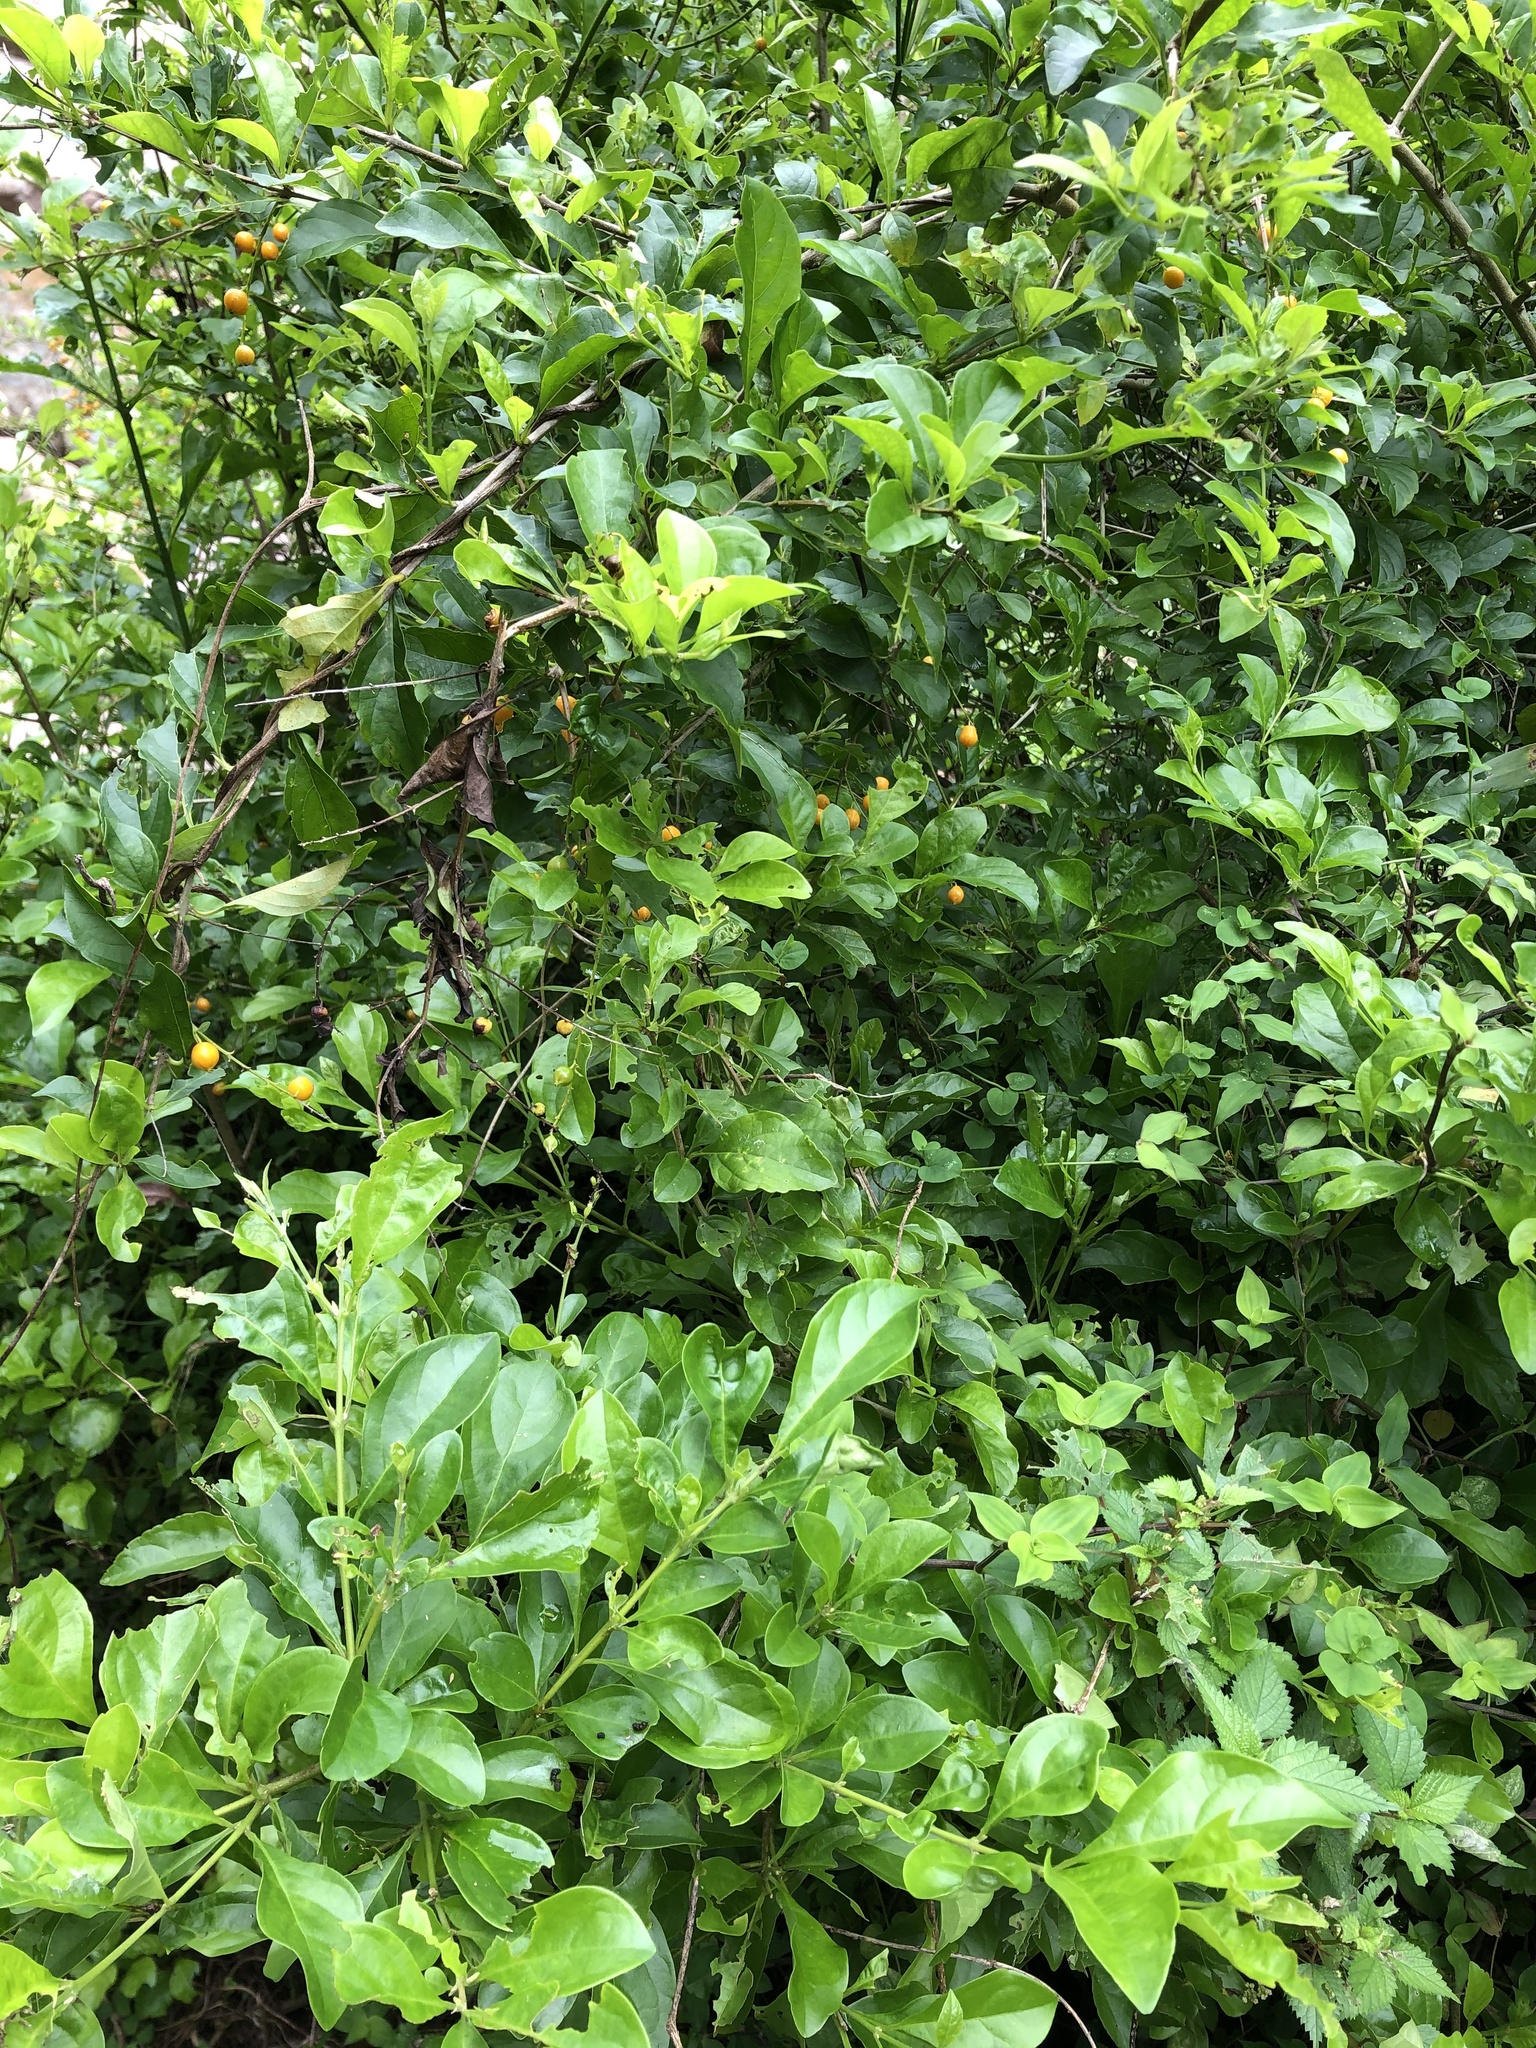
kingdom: Plantae
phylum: Tracheophyta
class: Magnoliopsida
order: Lamiales
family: Verbenaceae
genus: Duranta
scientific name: Duranta erecta
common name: Golden dewdrops
